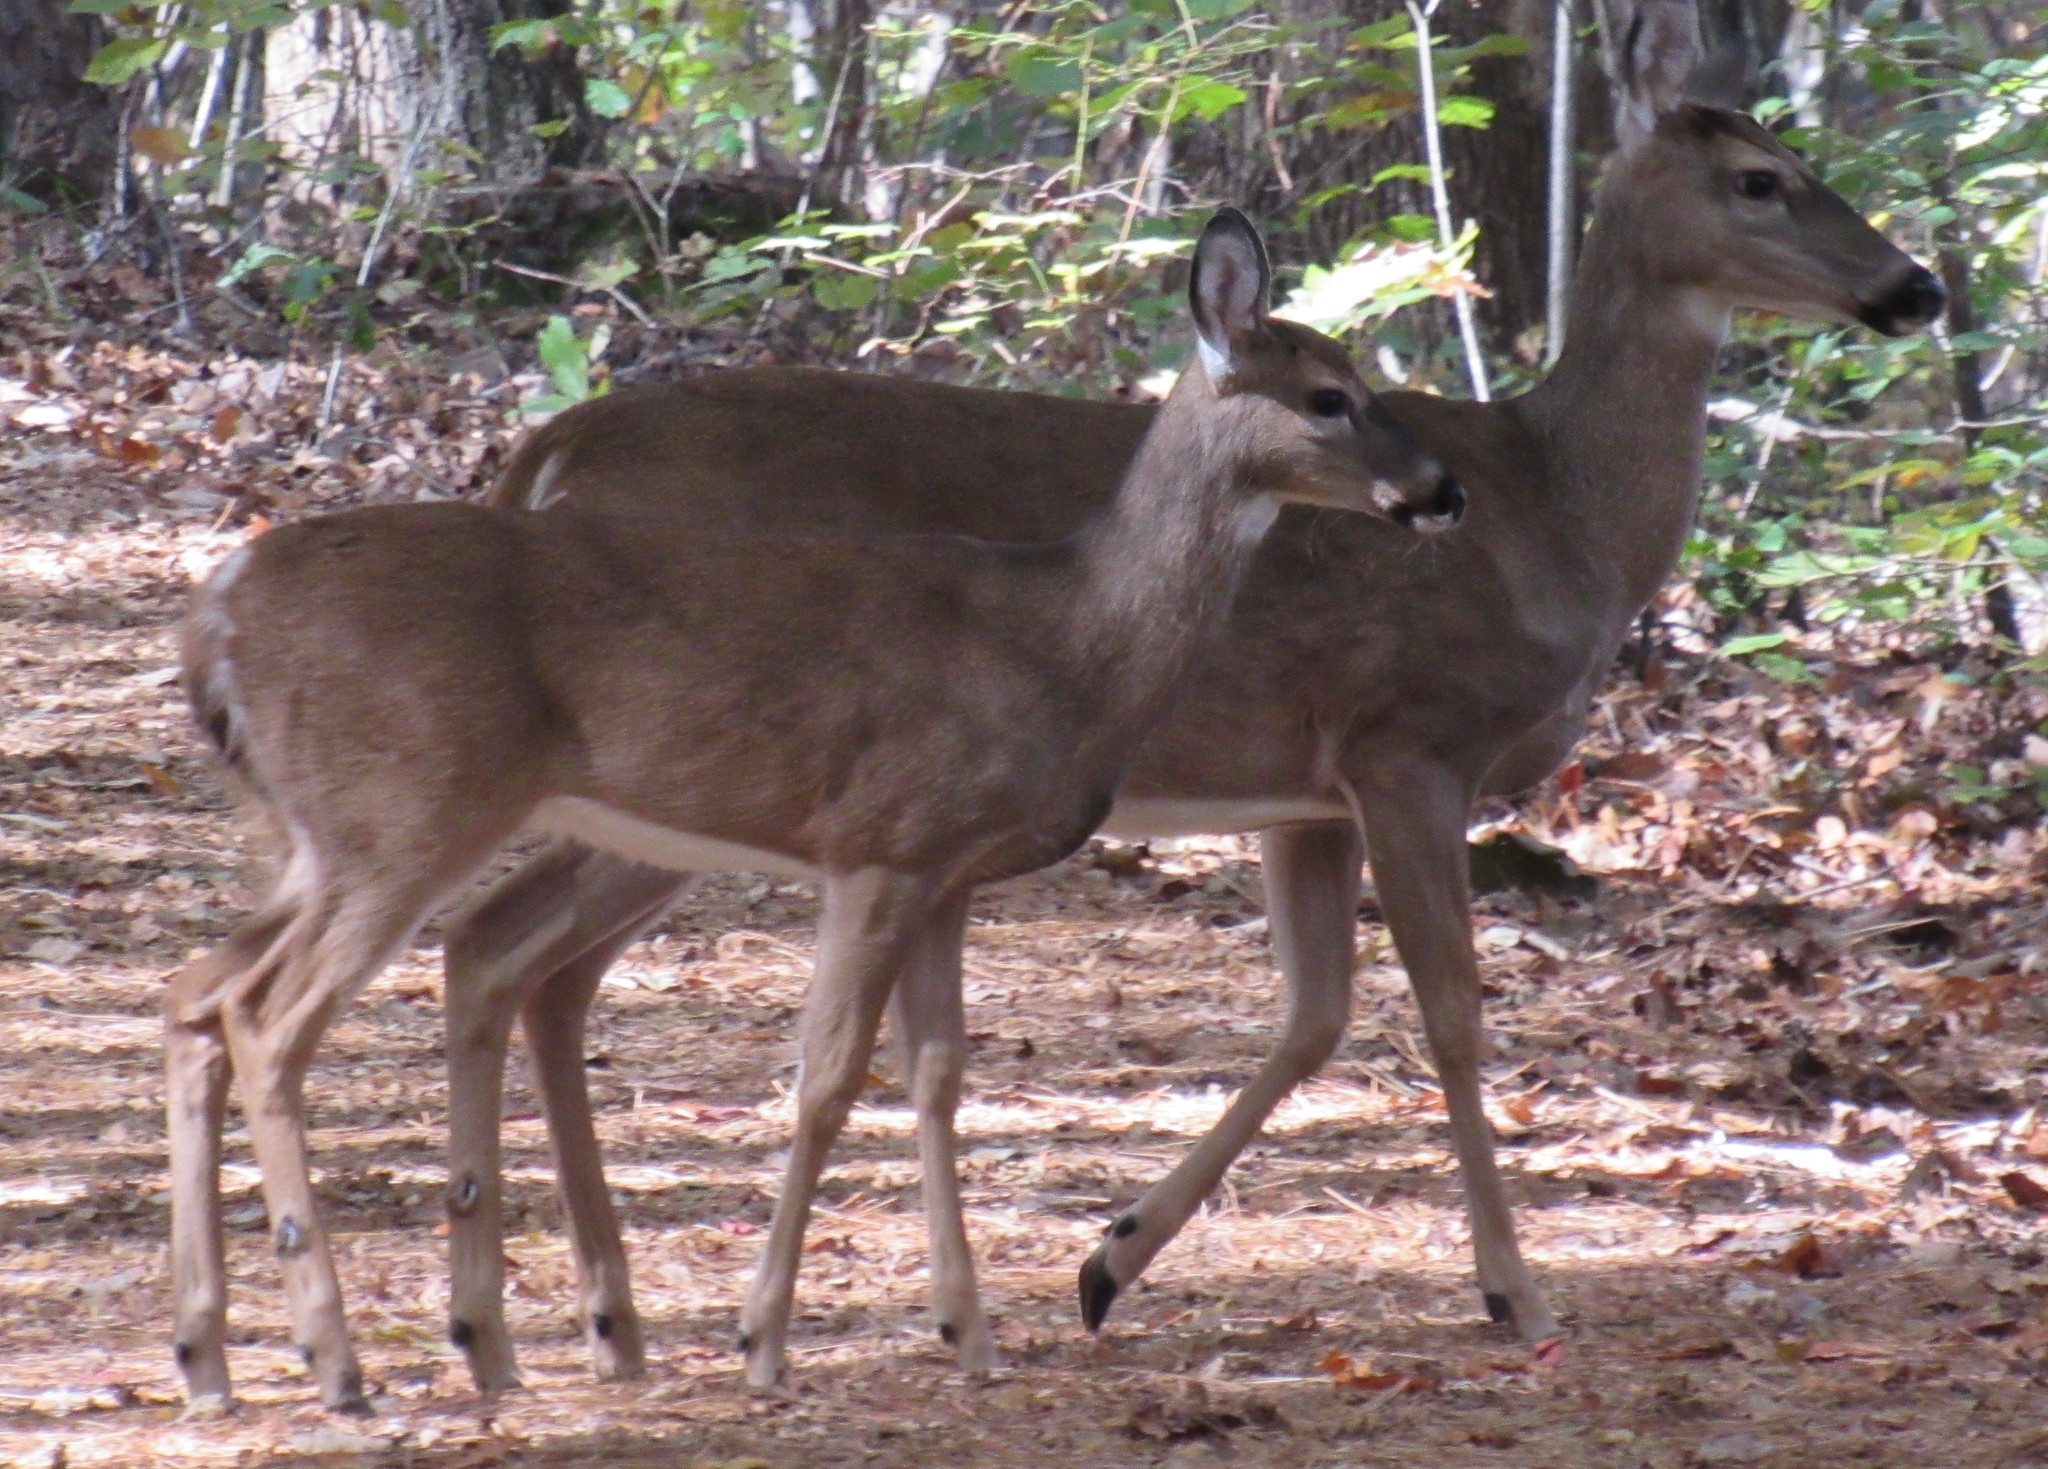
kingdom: Animalia
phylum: Chordata
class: Mammalia
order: Artiodactyla
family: Cervidae
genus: Odocoileus
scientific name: Odocoileus virginianus
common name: White-tailed deer
